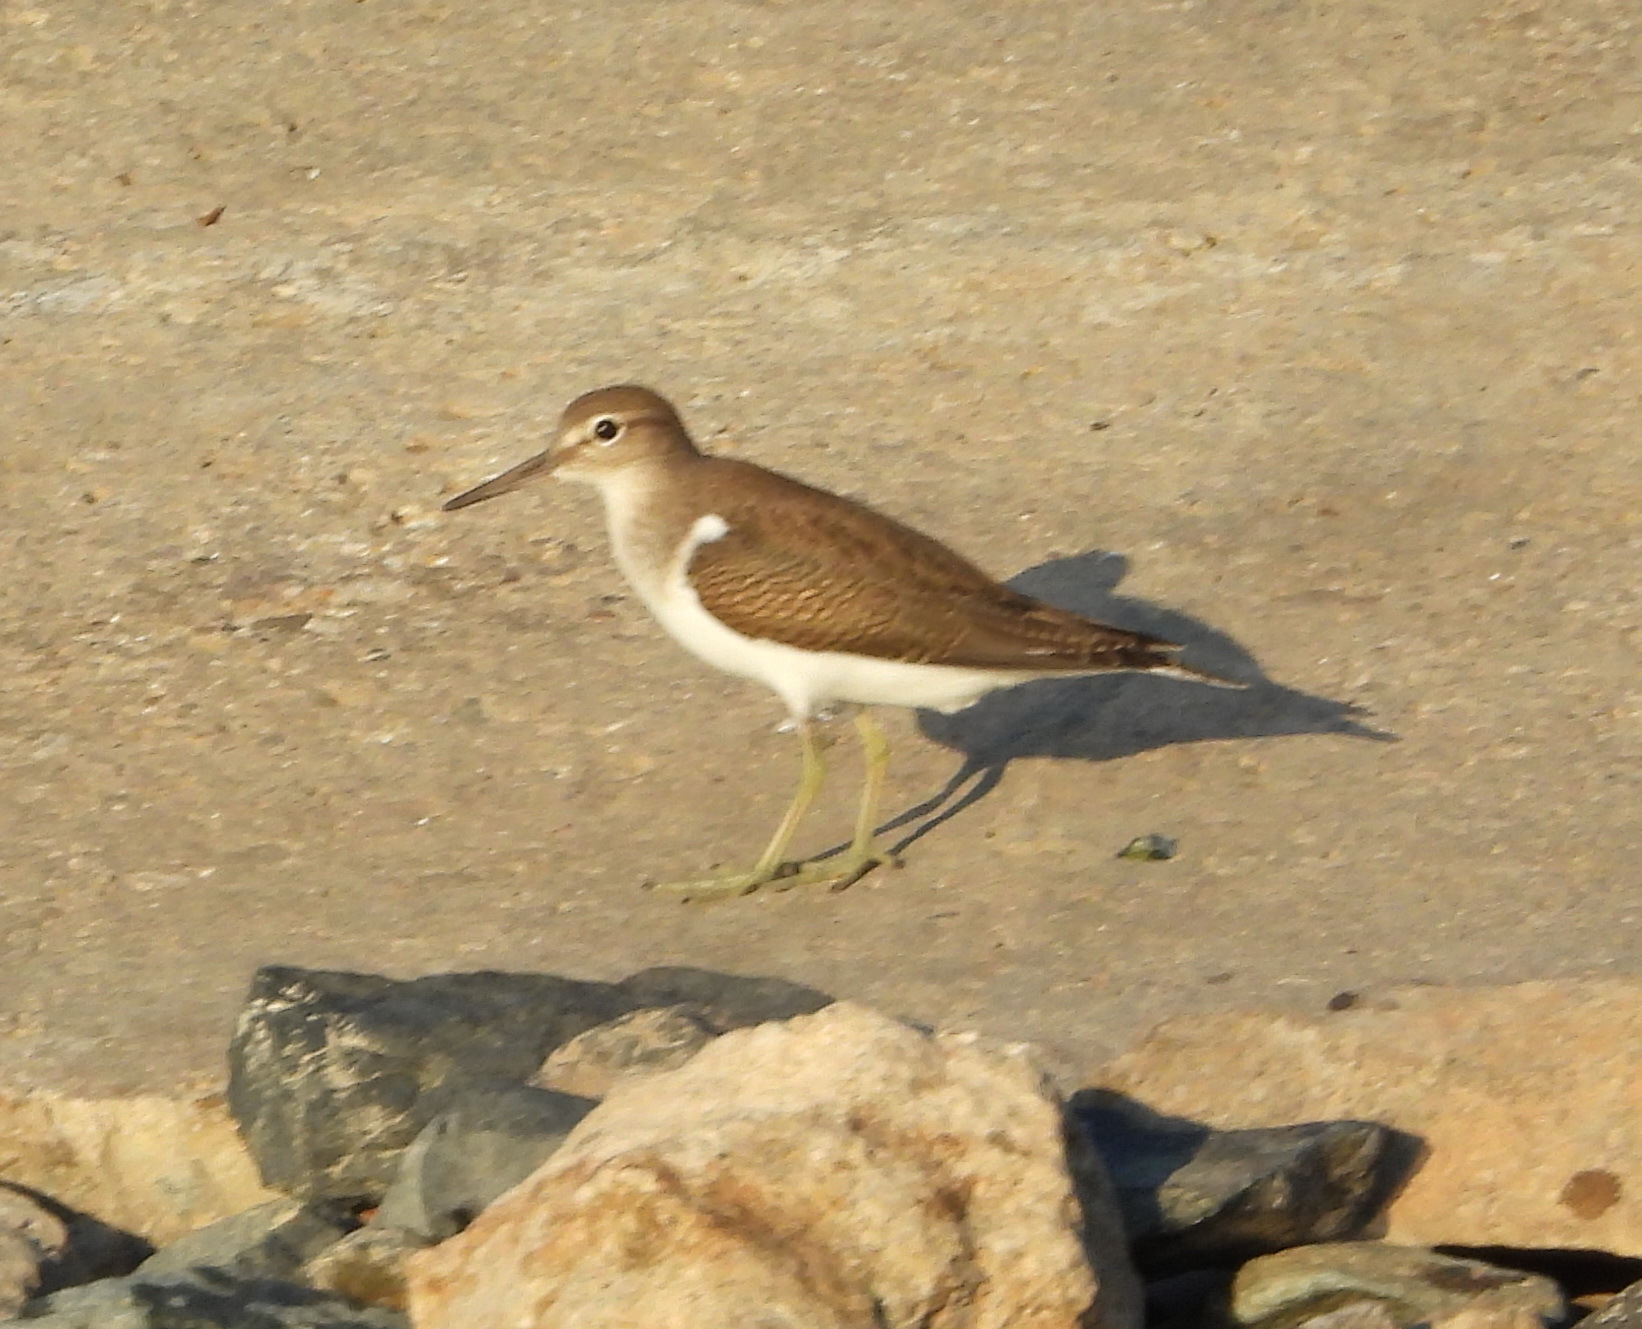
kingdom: Animalia
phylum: Chordata
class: Aves
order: Charadriiformes
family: Scolopacidae
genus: Actitis
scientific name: Actitis hypoleucos
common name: Common sandpiper
